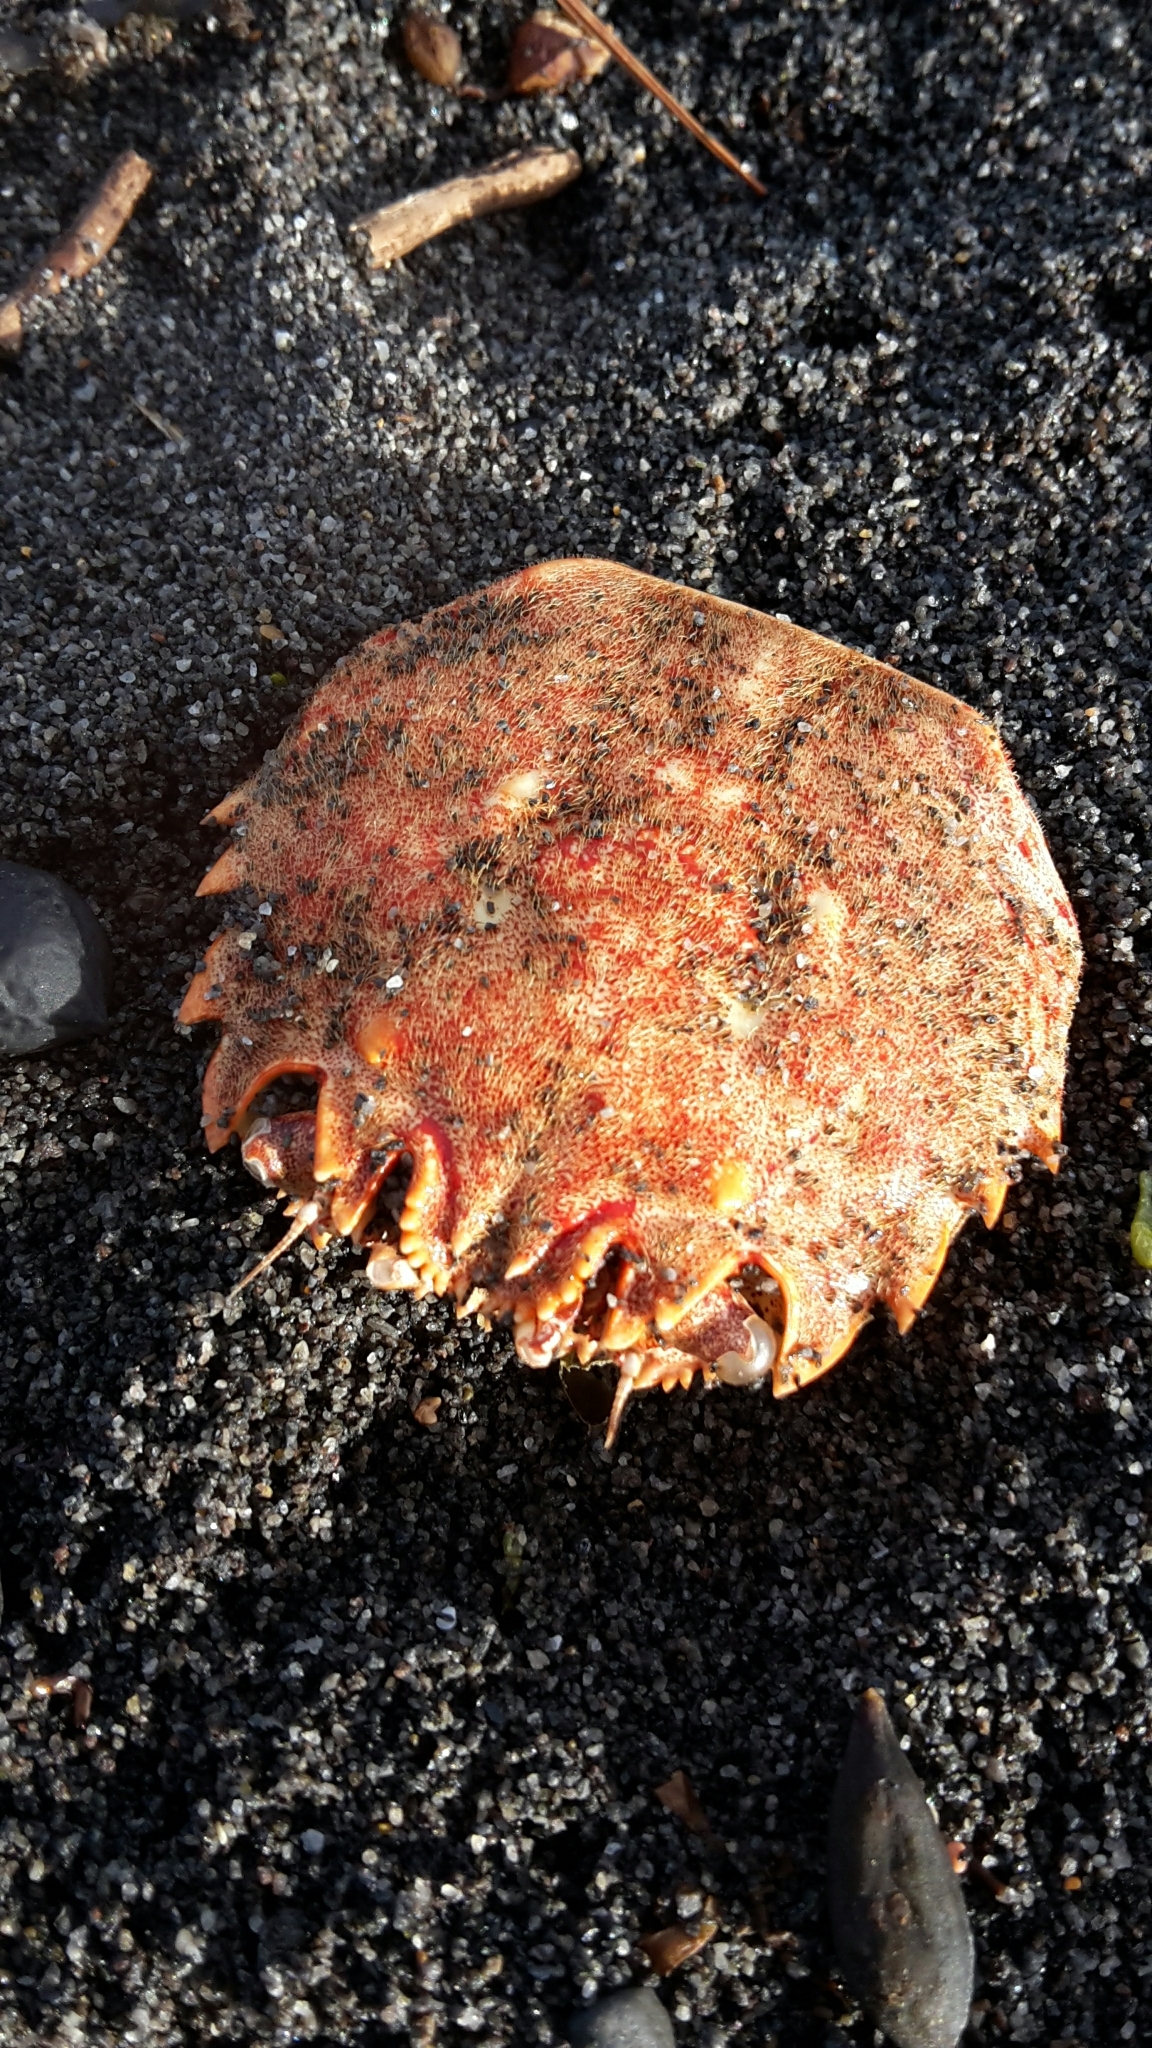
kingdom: Animalia
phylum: Arthropoda
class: Malacostraca
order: Decapoda
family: Plagusiidae
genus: Guinusia
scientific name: Guinusia chabrus
